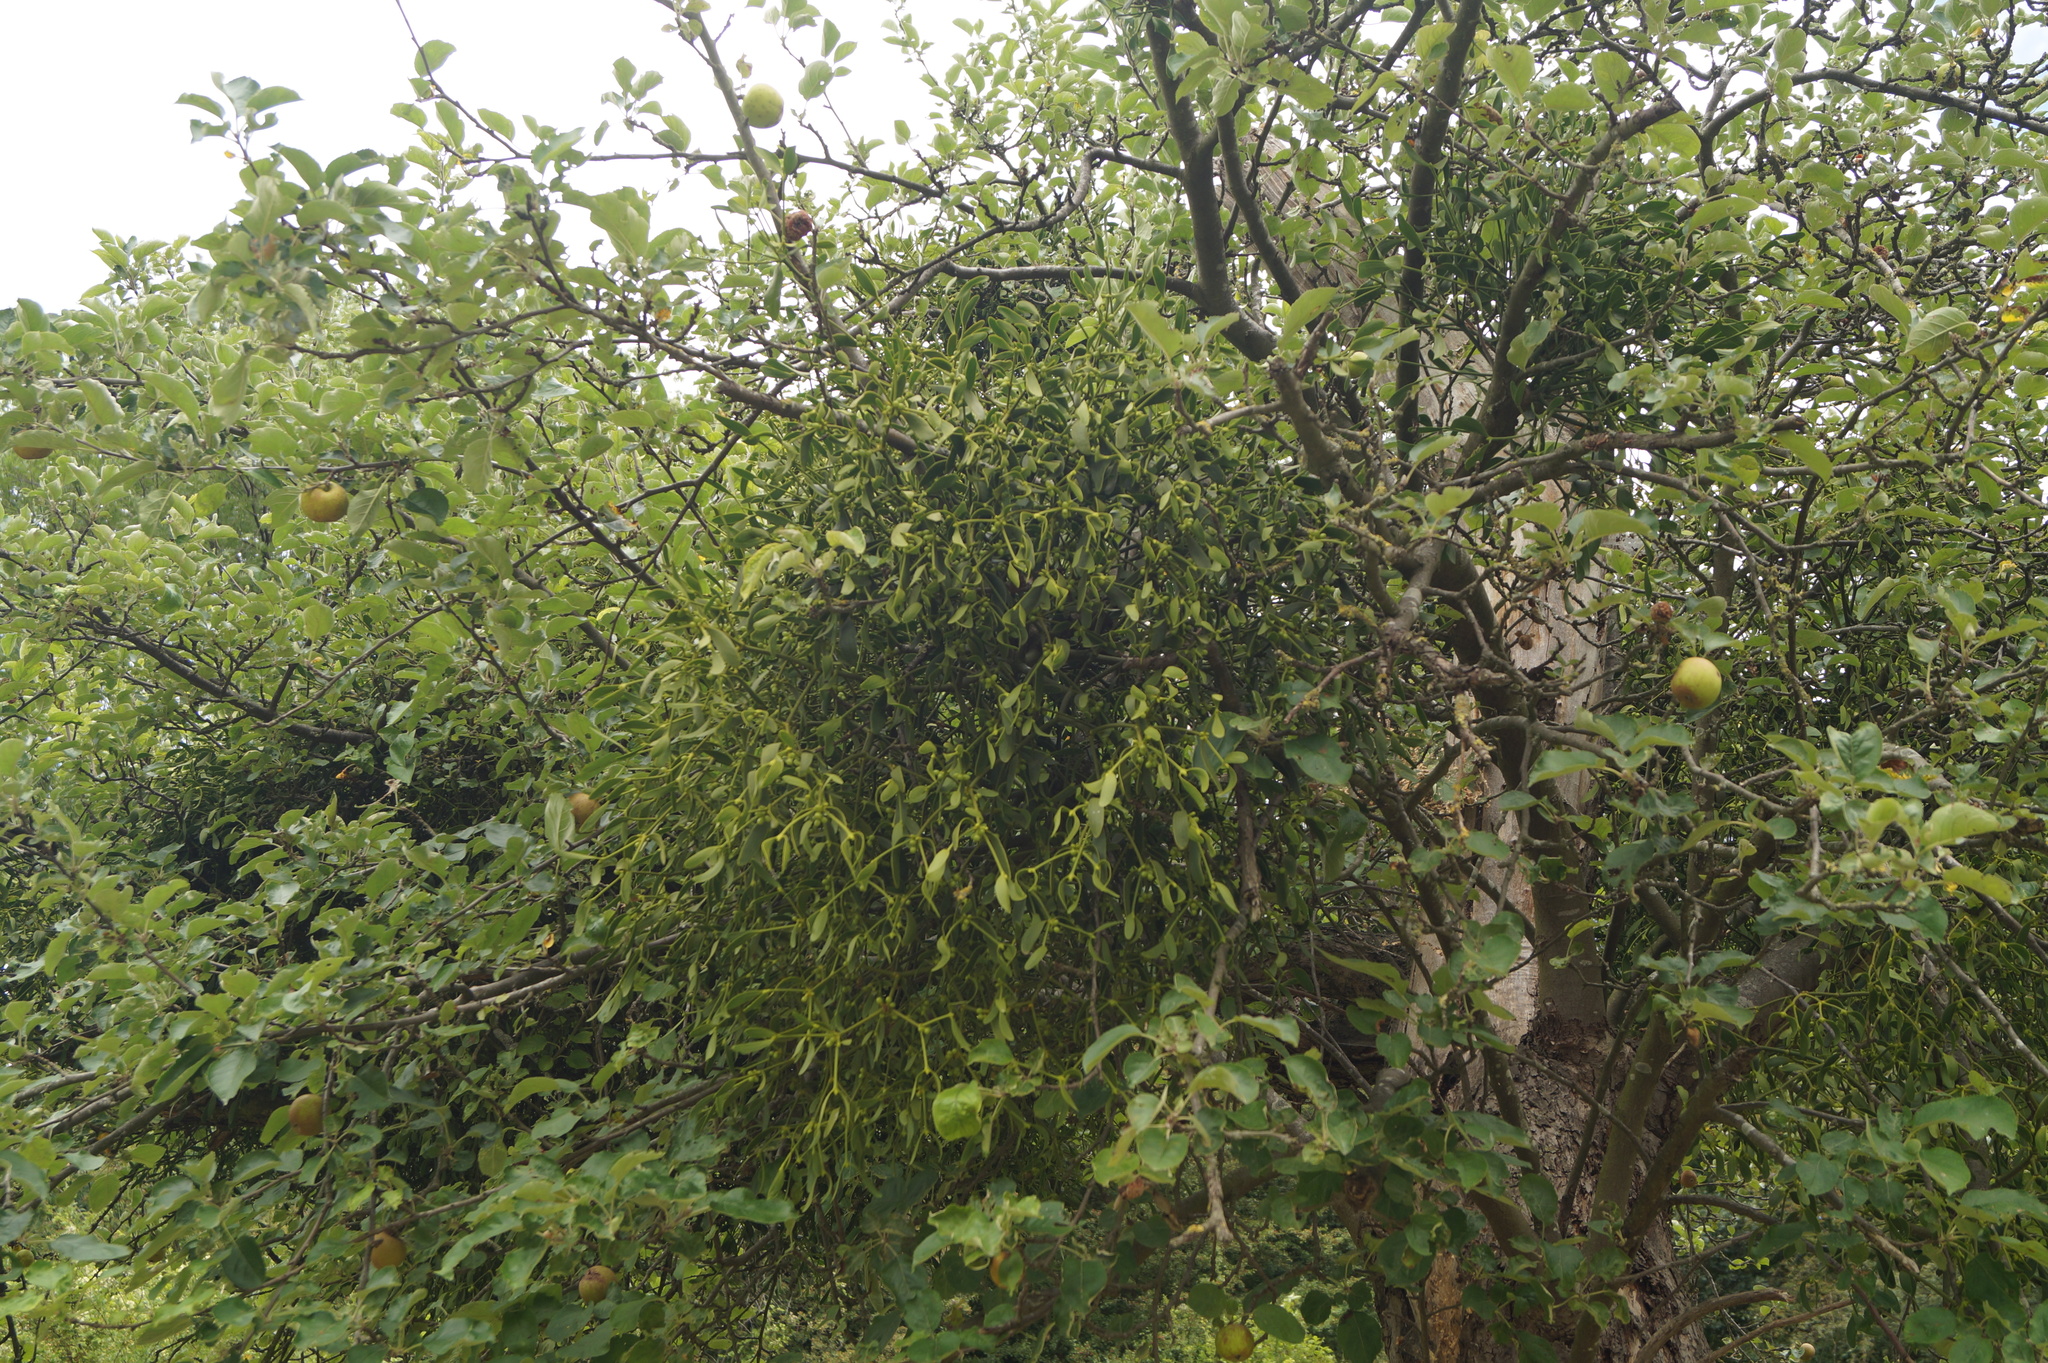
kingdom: Plantae
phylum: Tracheophyta
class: Magnoliopsida
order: Santalales
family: Viscaceae
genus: Viscum
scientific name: Viscum album
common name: Mistletoe
